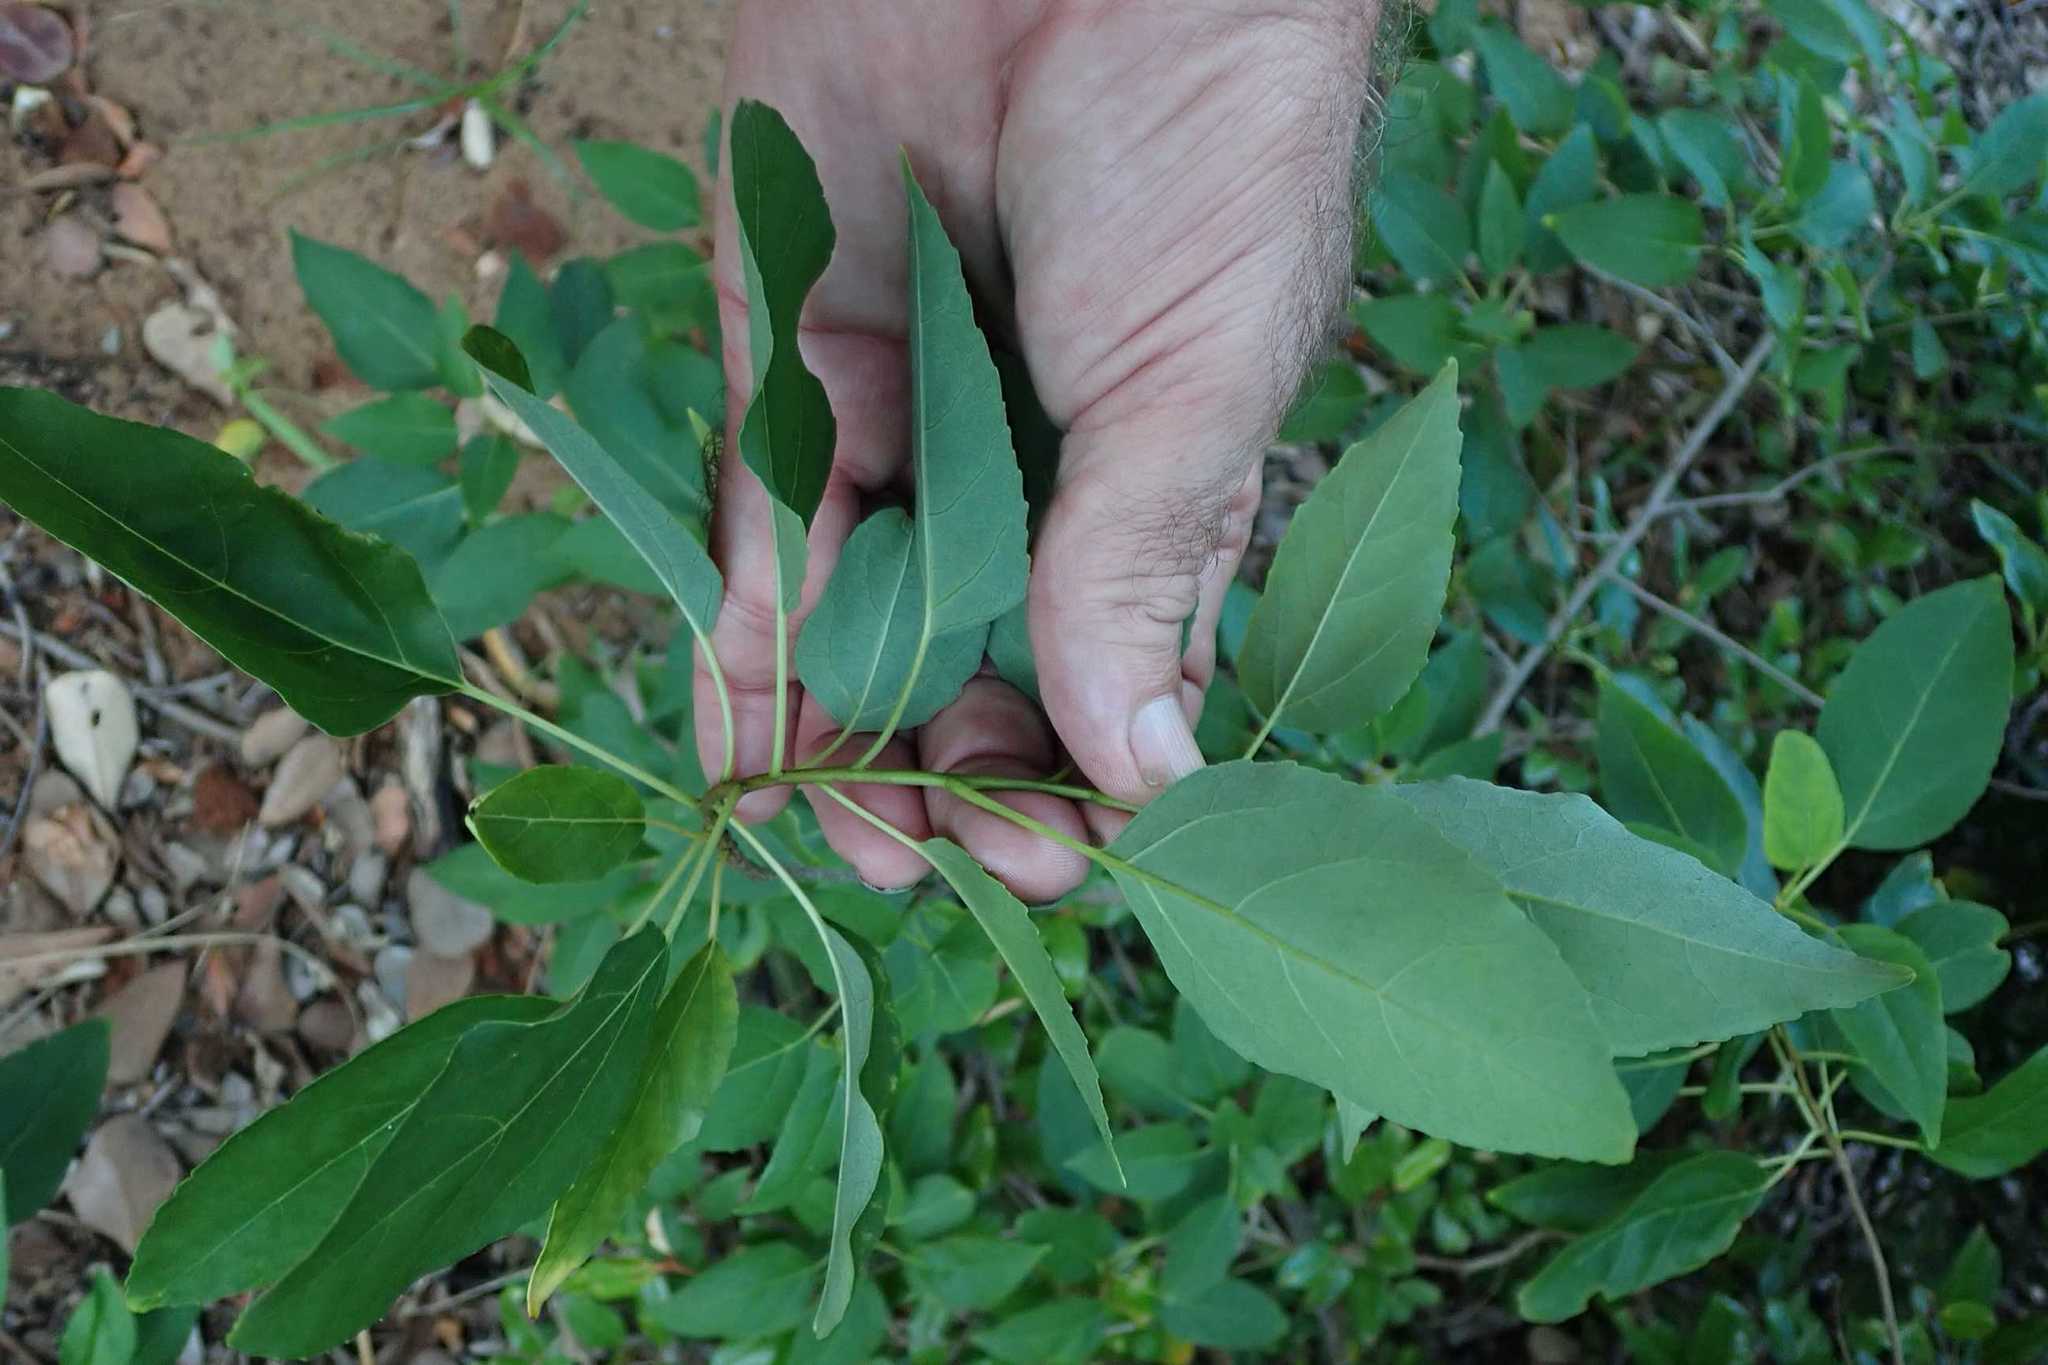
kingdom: Plantae
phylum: Tracheophyta
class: Magnoliopsida
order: Boraginales
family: Cordiaceae
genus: Cordia
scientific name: Cordia caffra
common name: Septee tree
